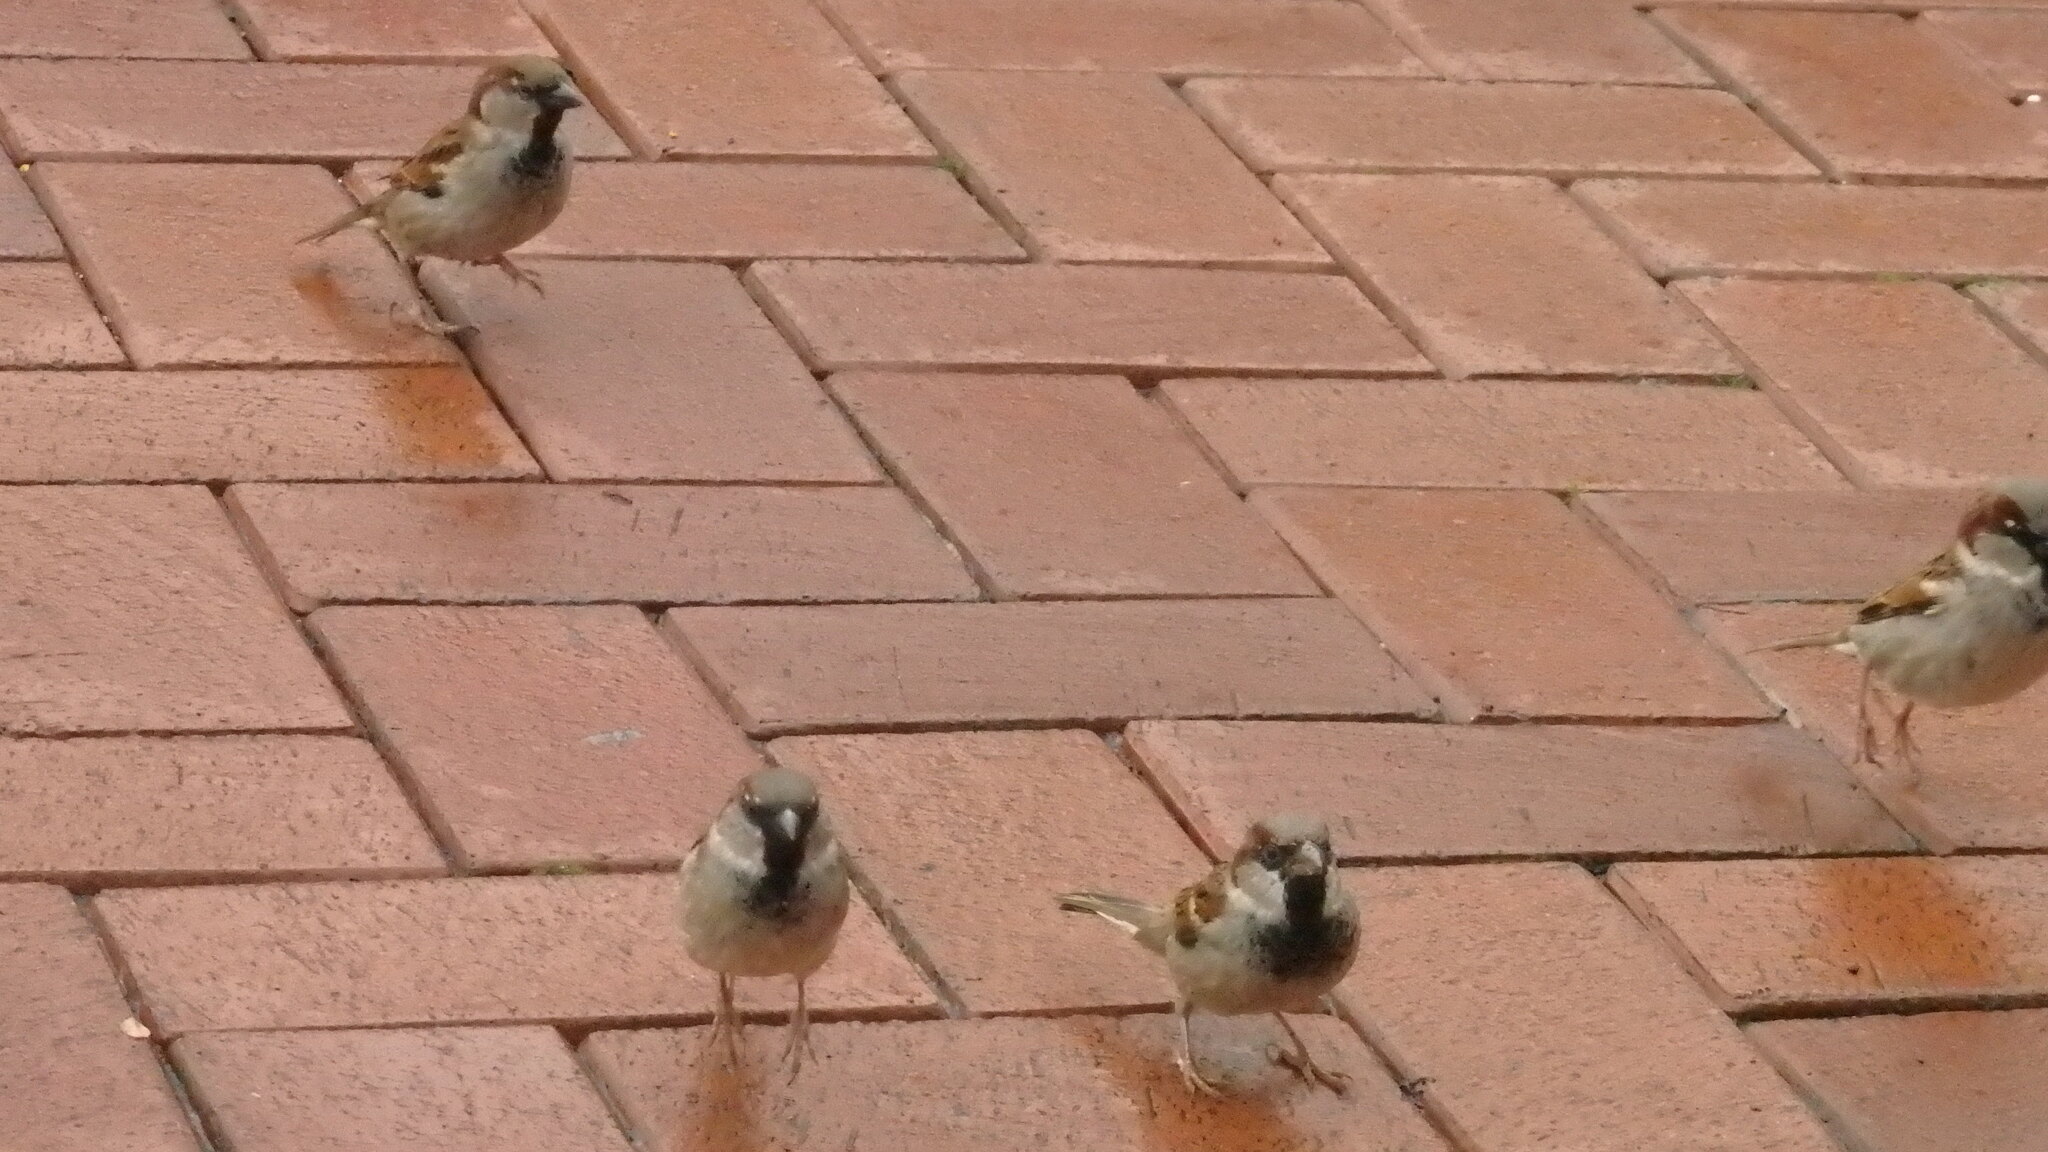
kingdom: Animalia
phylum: Chordata
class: Aves
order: Passeriformes
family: Passeridae
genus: Passer
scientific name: Passer domesticus
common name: House sparrow
